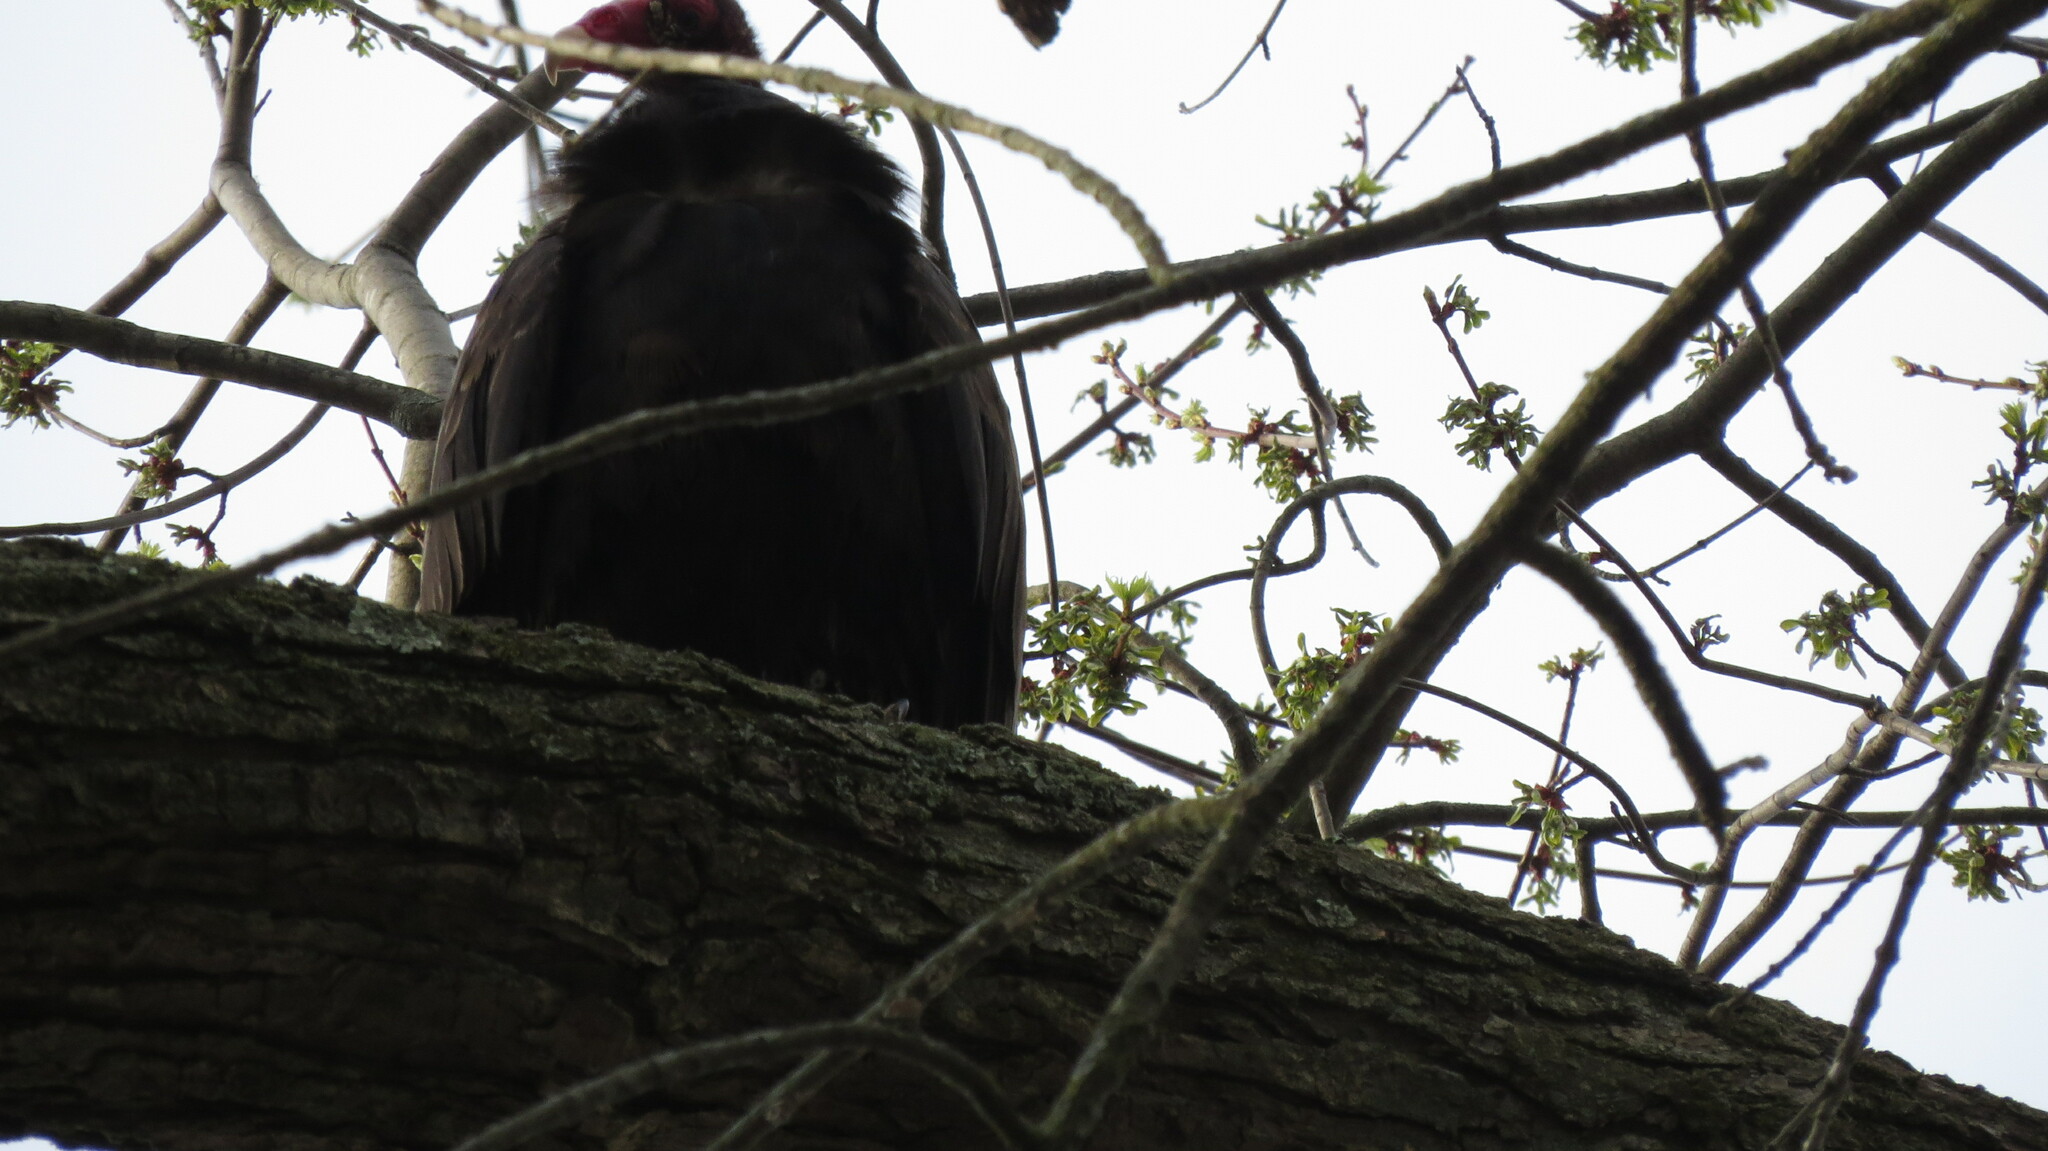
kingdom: Animalia
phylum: Chordata
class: Aves
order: Accipitriformes
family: Cathartidae
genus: Cathartes
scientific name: Cathartes aura
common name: Turkey vulture
